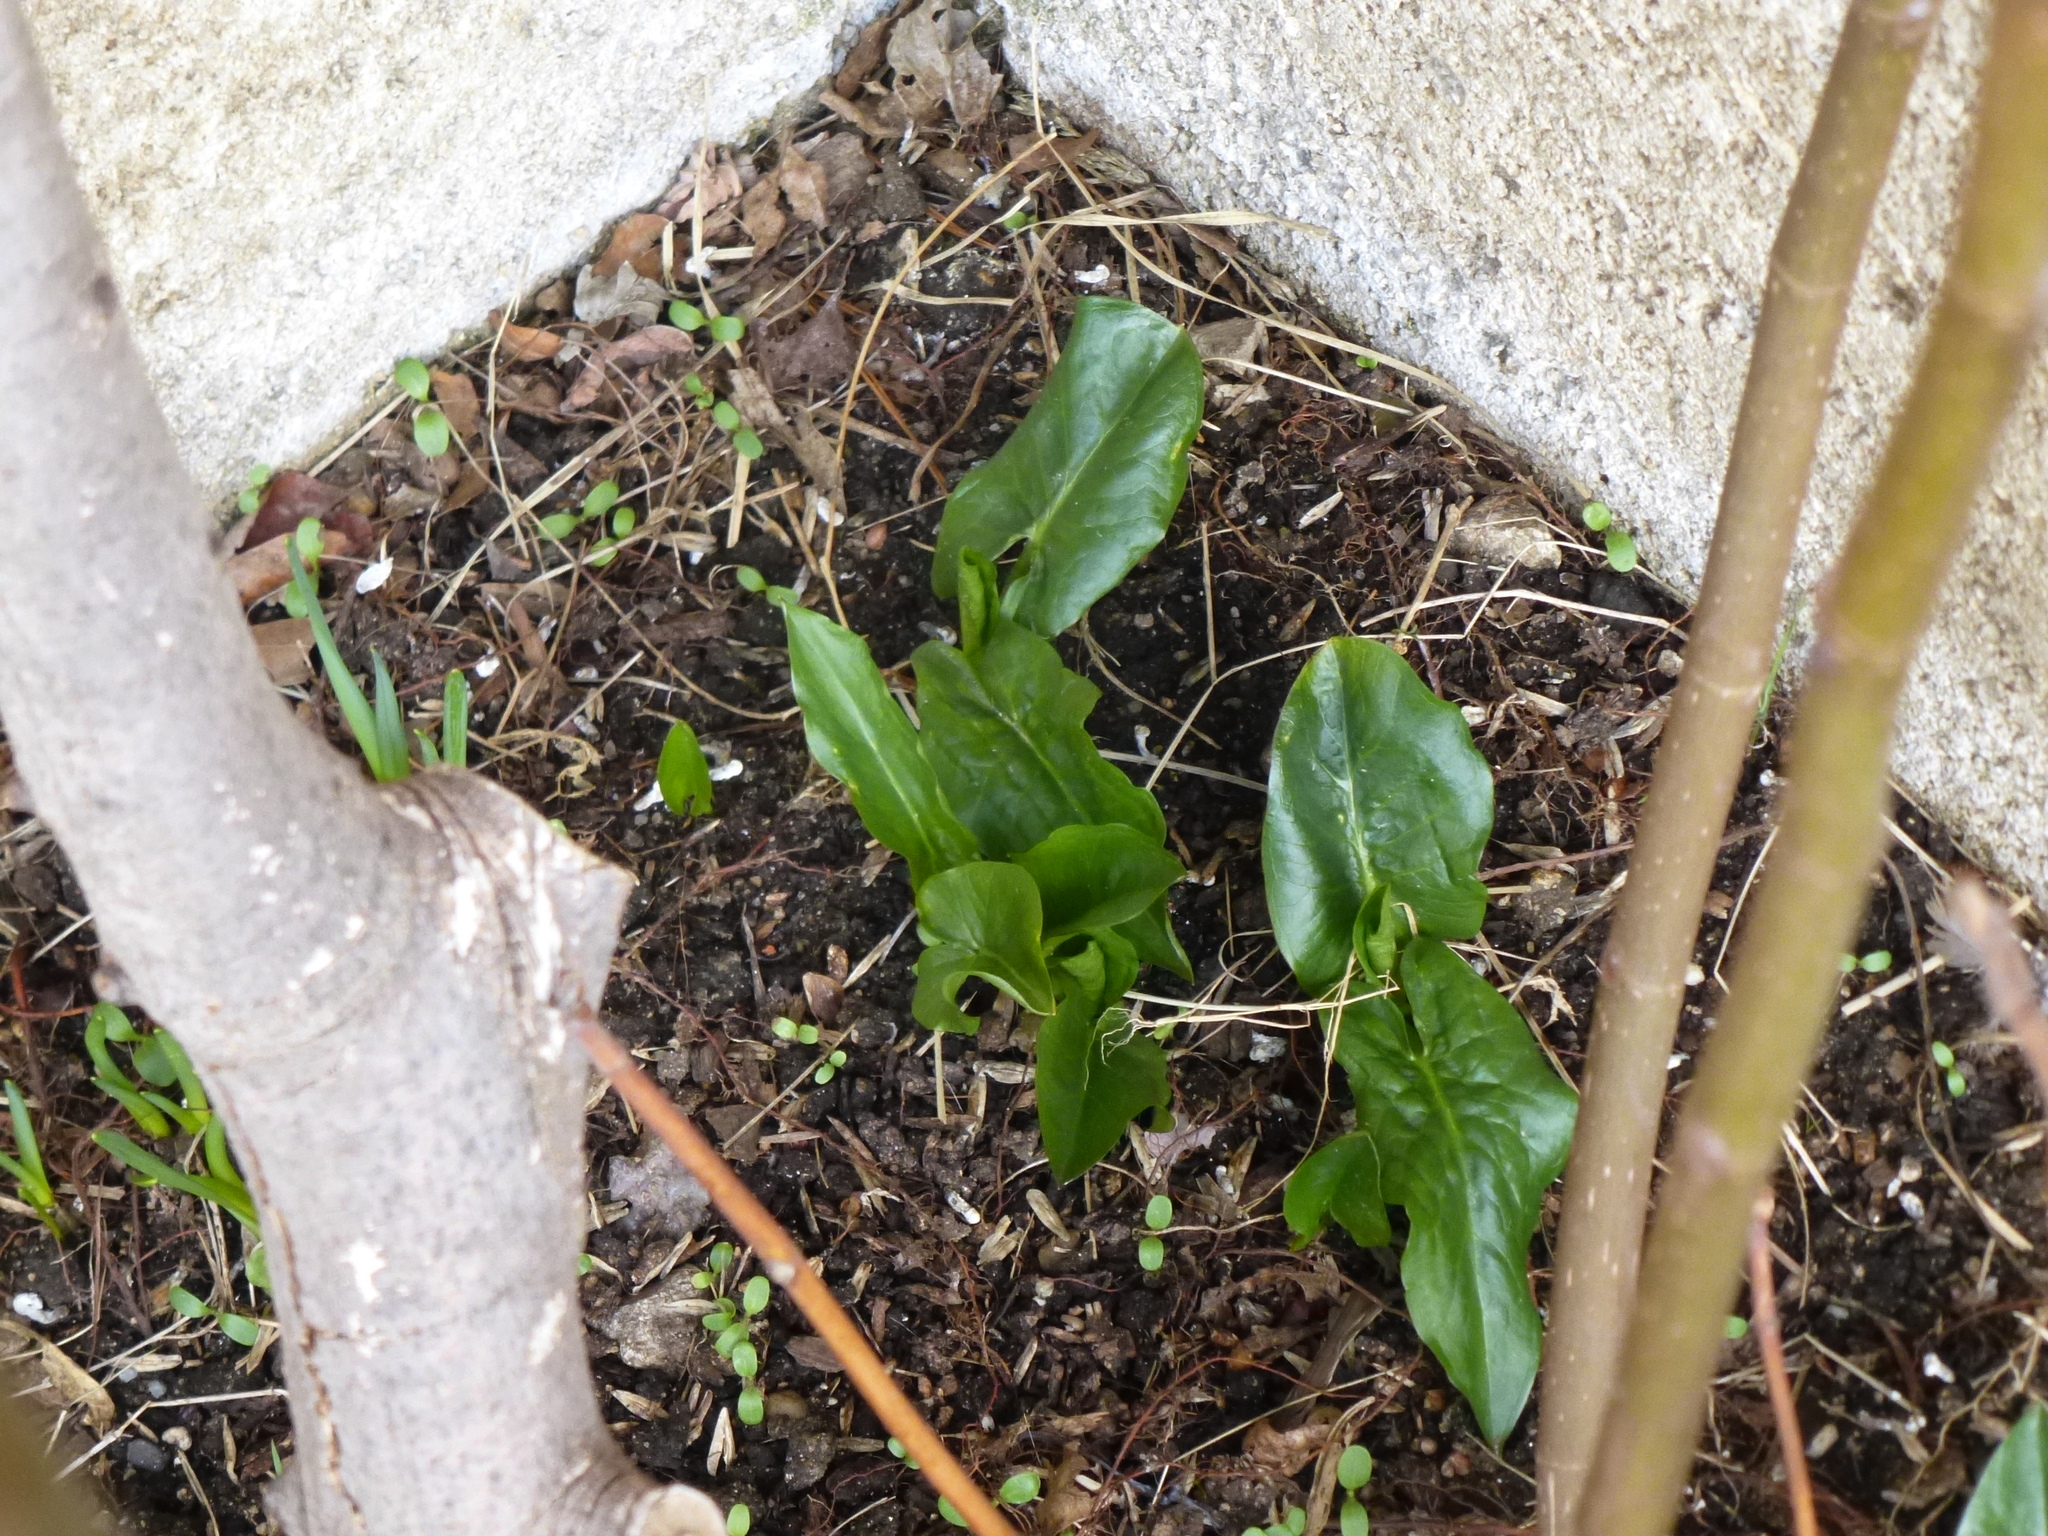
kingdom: Plantae
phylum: Tracheophyta
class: Liliopsida
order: Alismatales
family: Araceae
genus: Arum
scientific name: Arum italicum
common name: Italian lords-and-ladies
